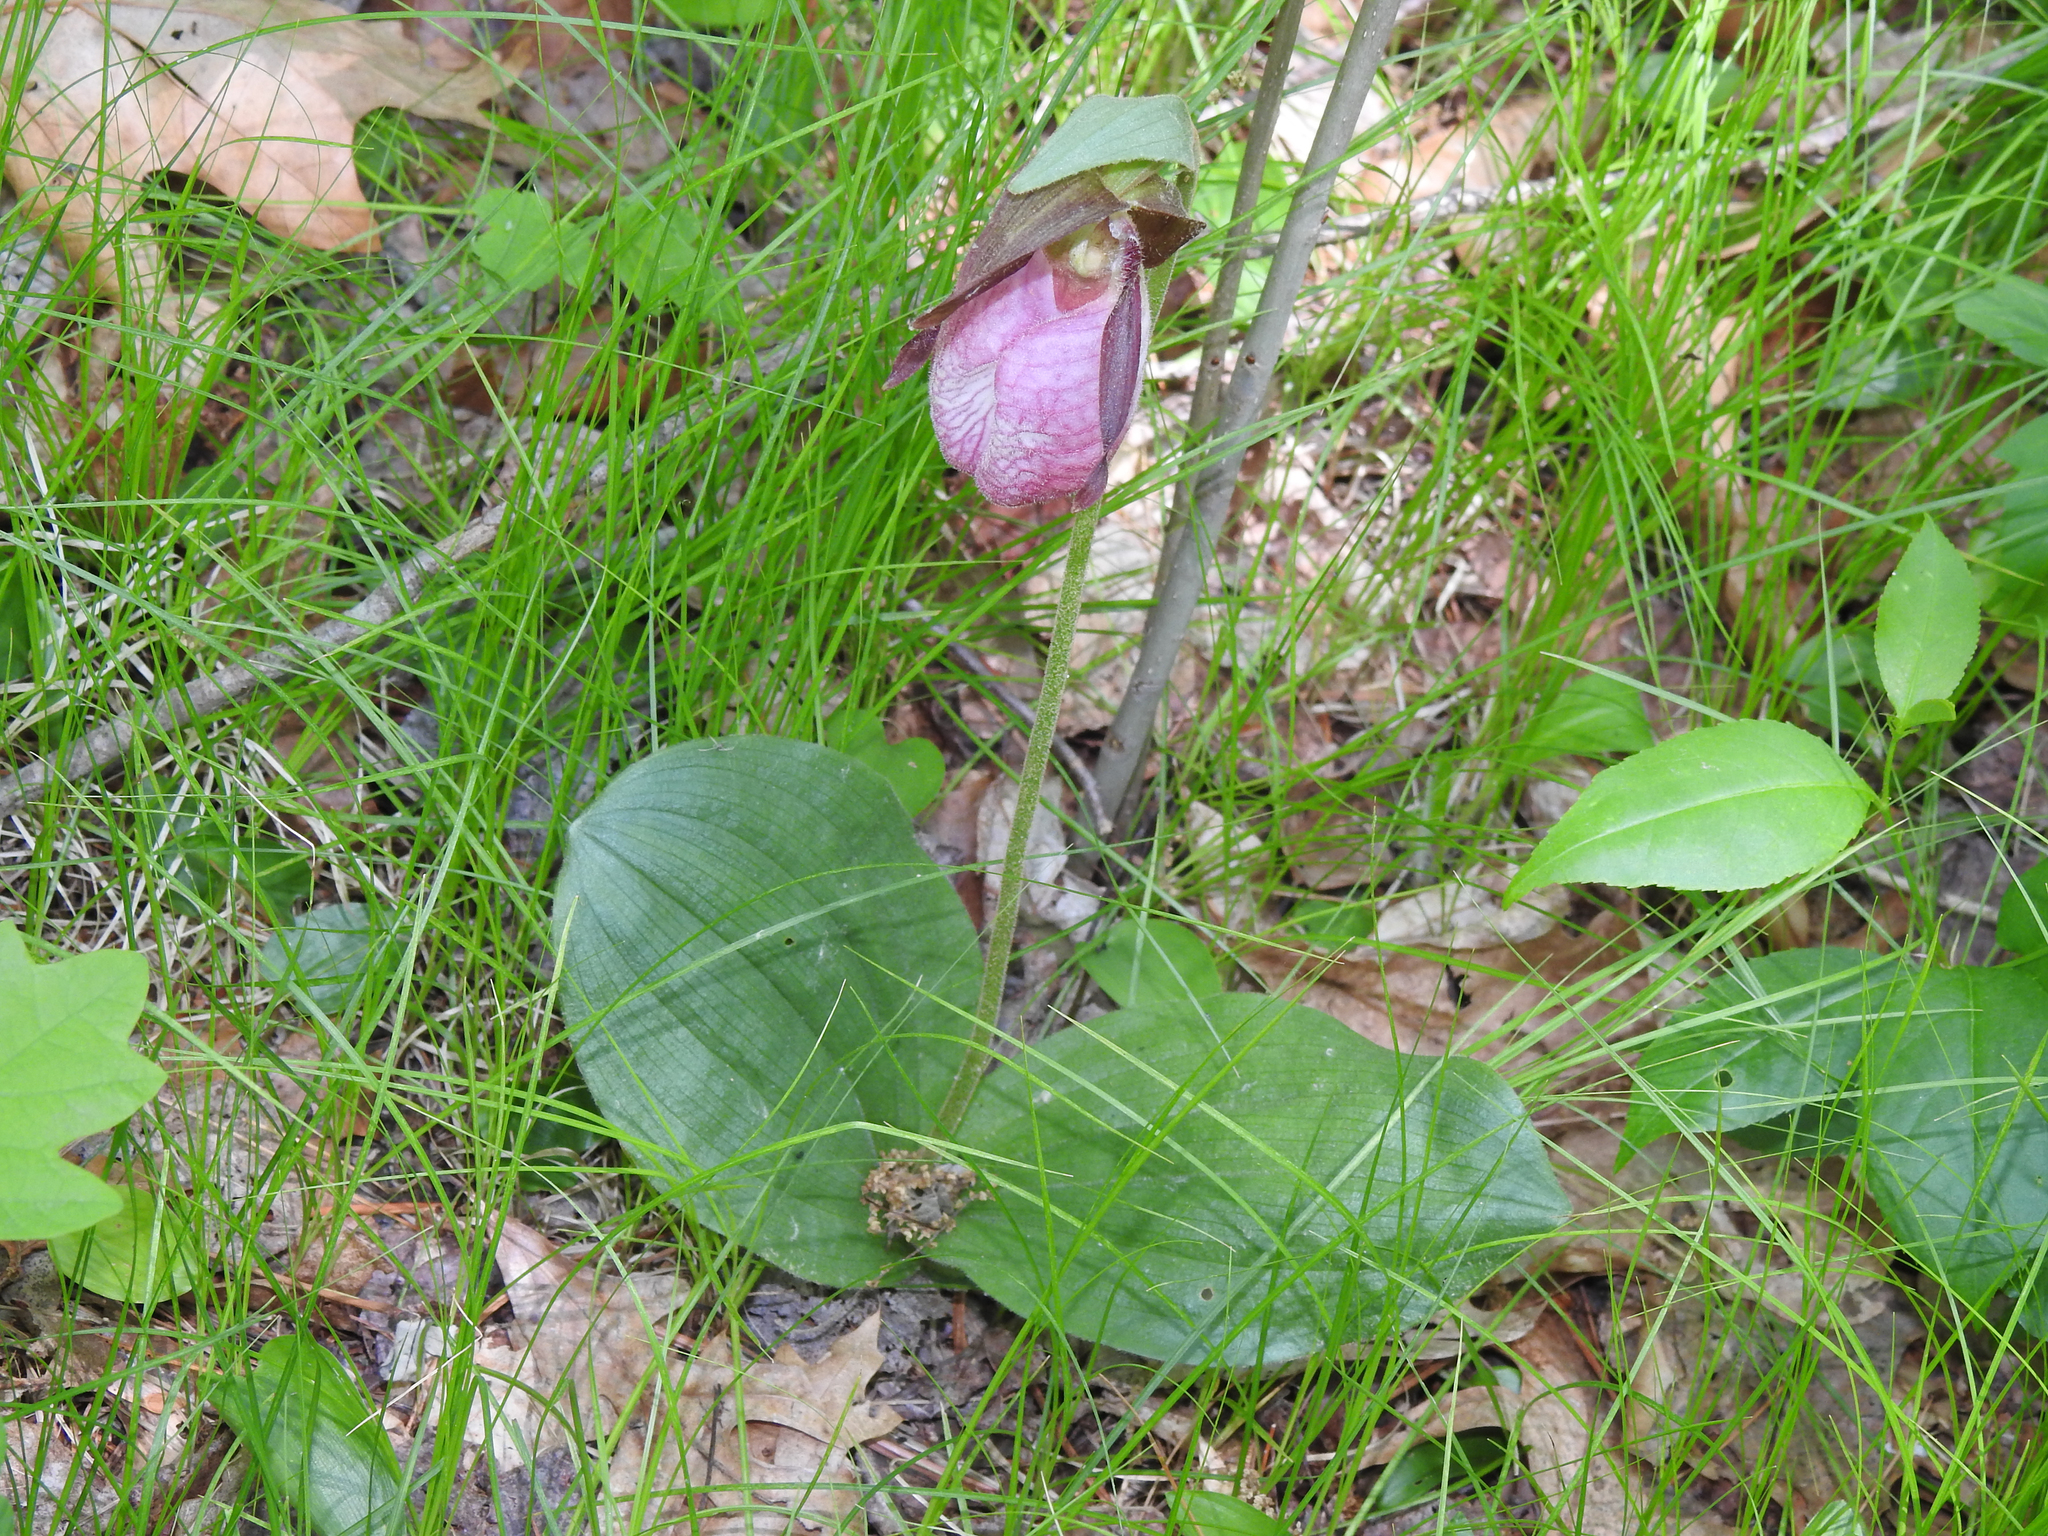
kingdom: Plantae
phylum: Tracheophyta
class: Liliopsida
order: Asparagales
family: Orchidaceae
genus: Cypripedium
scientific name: Cypripedium acaule
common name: Pink lady's-slipper
